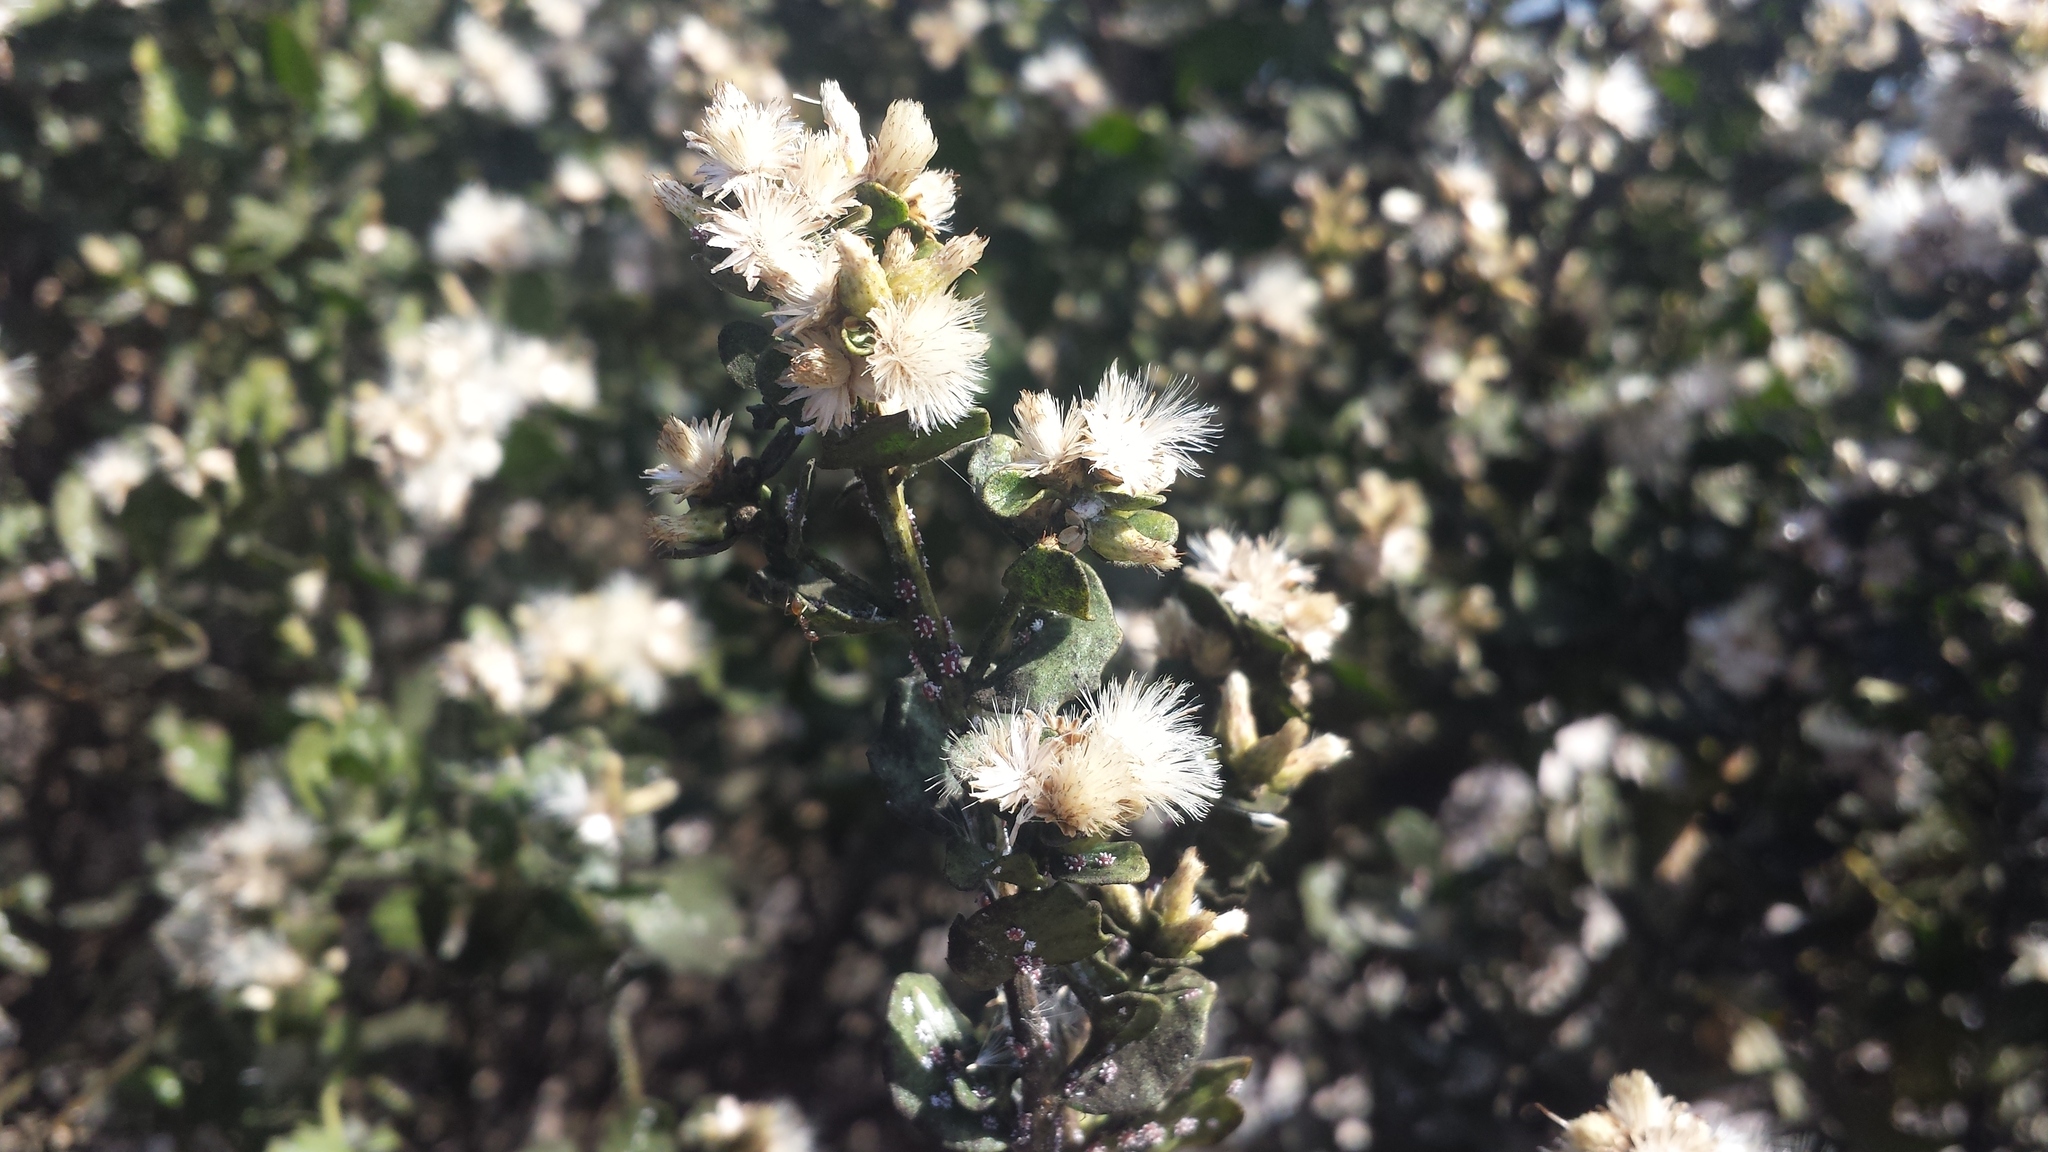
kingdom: Plantae
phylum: Tracheophyta
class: Magnoliopsida
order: Asterales
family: Asteraceae
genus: Baccharis
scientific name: Baccharis pilularis
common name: Coyotebrush
